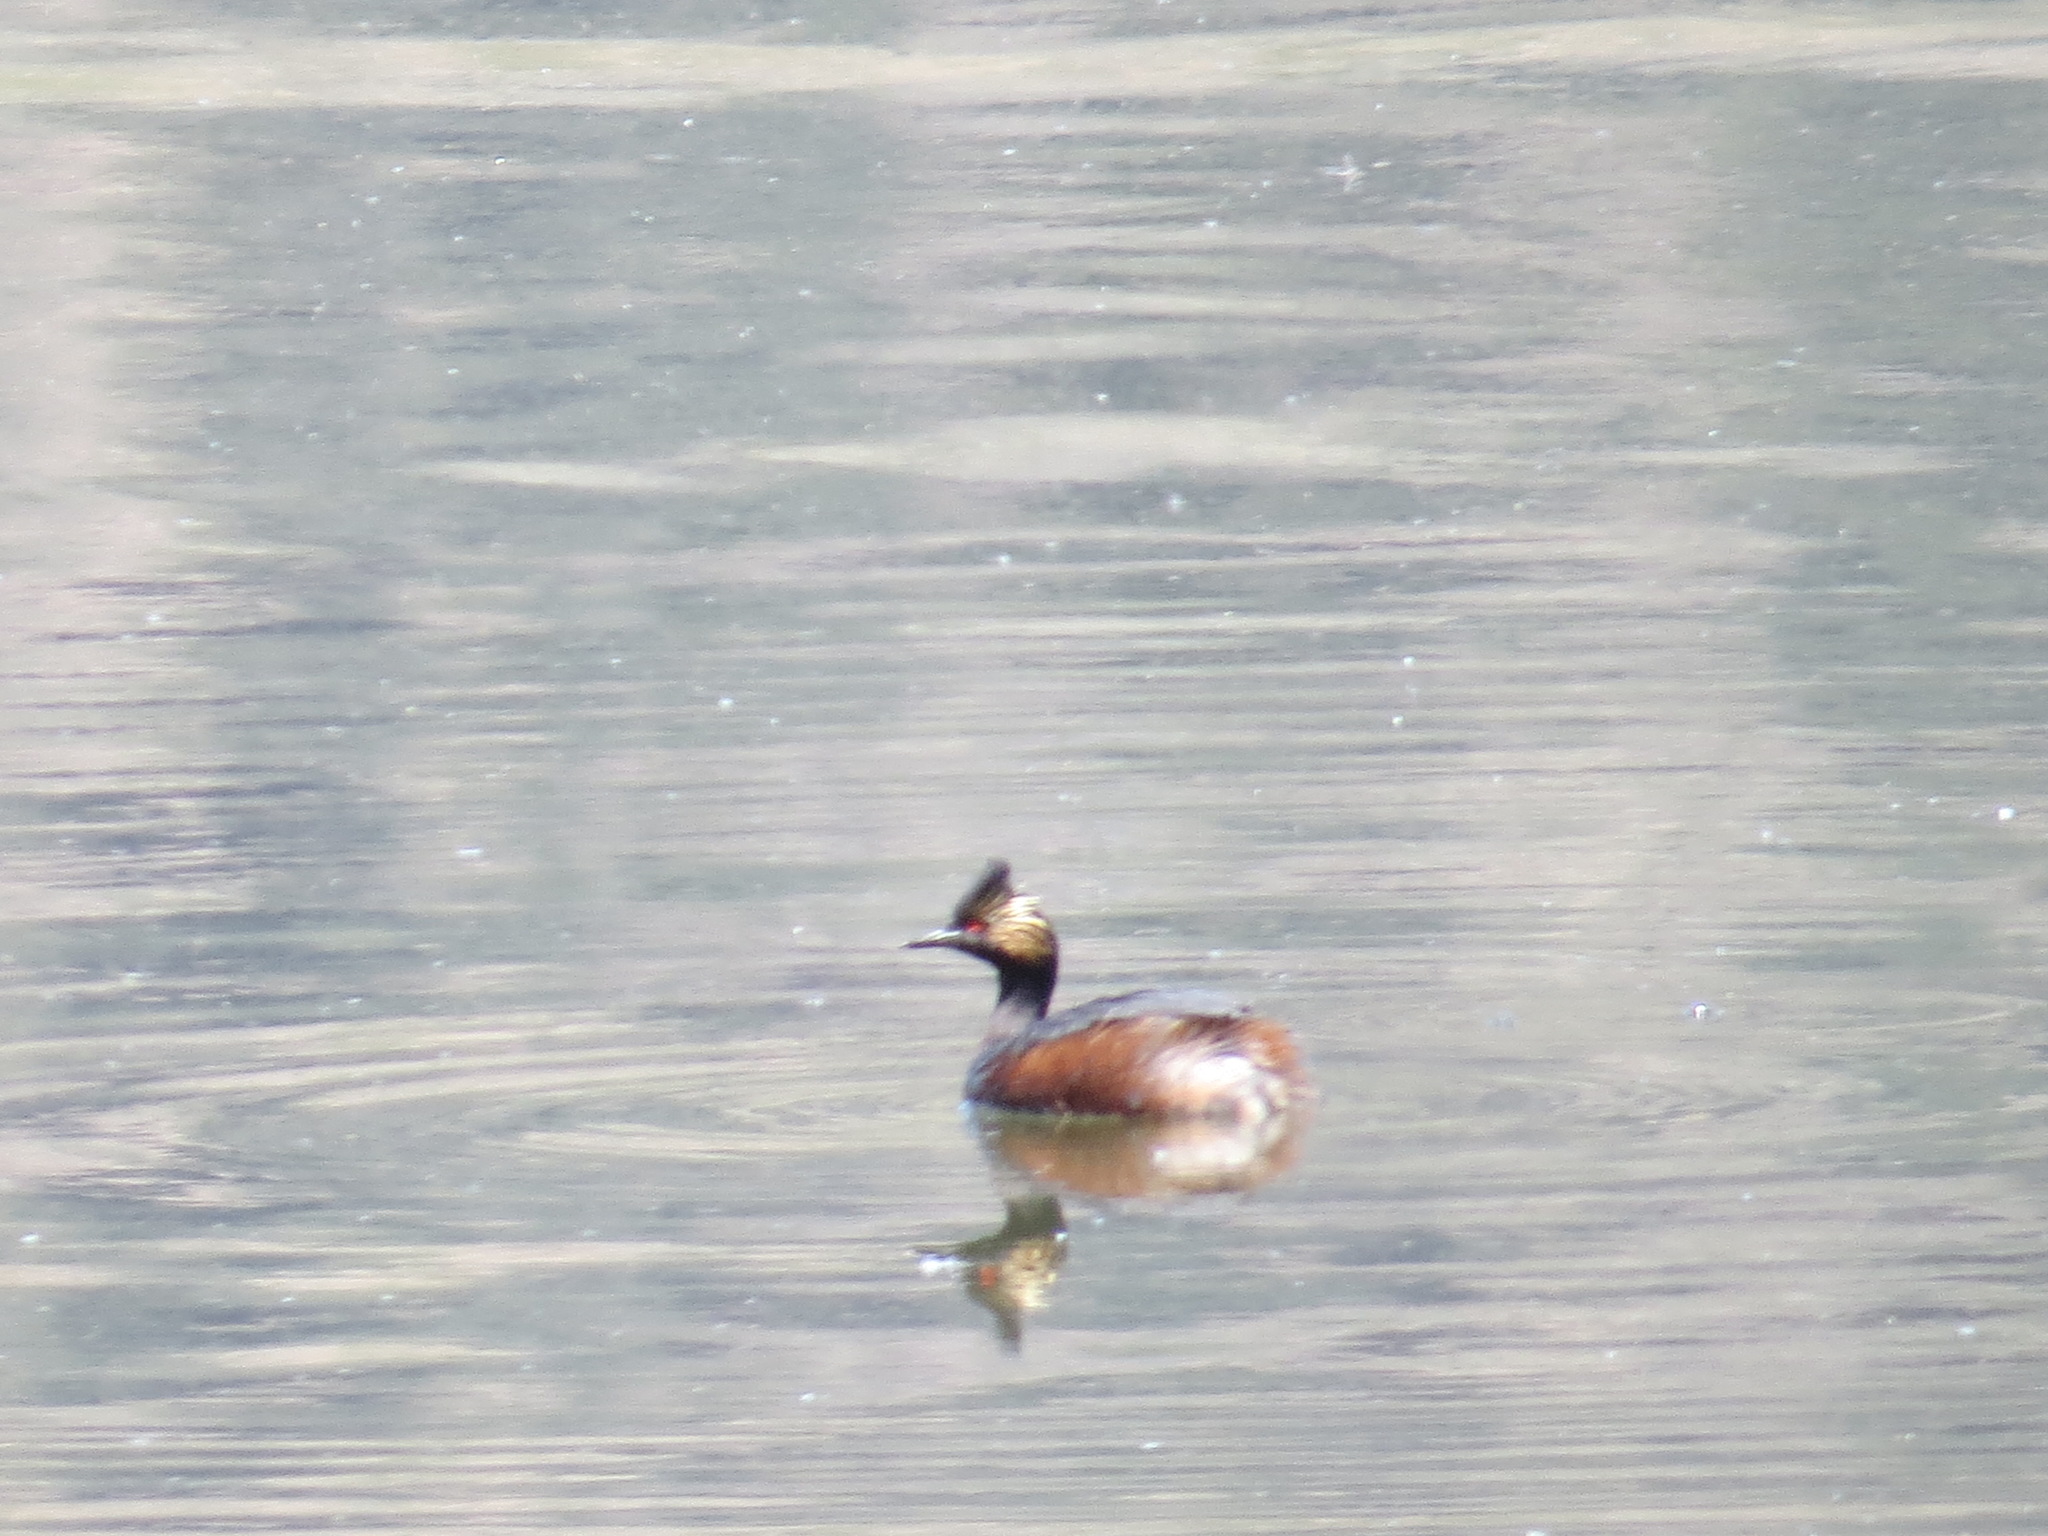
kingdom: Animalia
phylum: Chordata
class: Aves
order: Podicipediformes
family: Podicipedidae
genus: Podiceps
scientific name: Podiceps nigricollis
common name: Black-necked grebe
